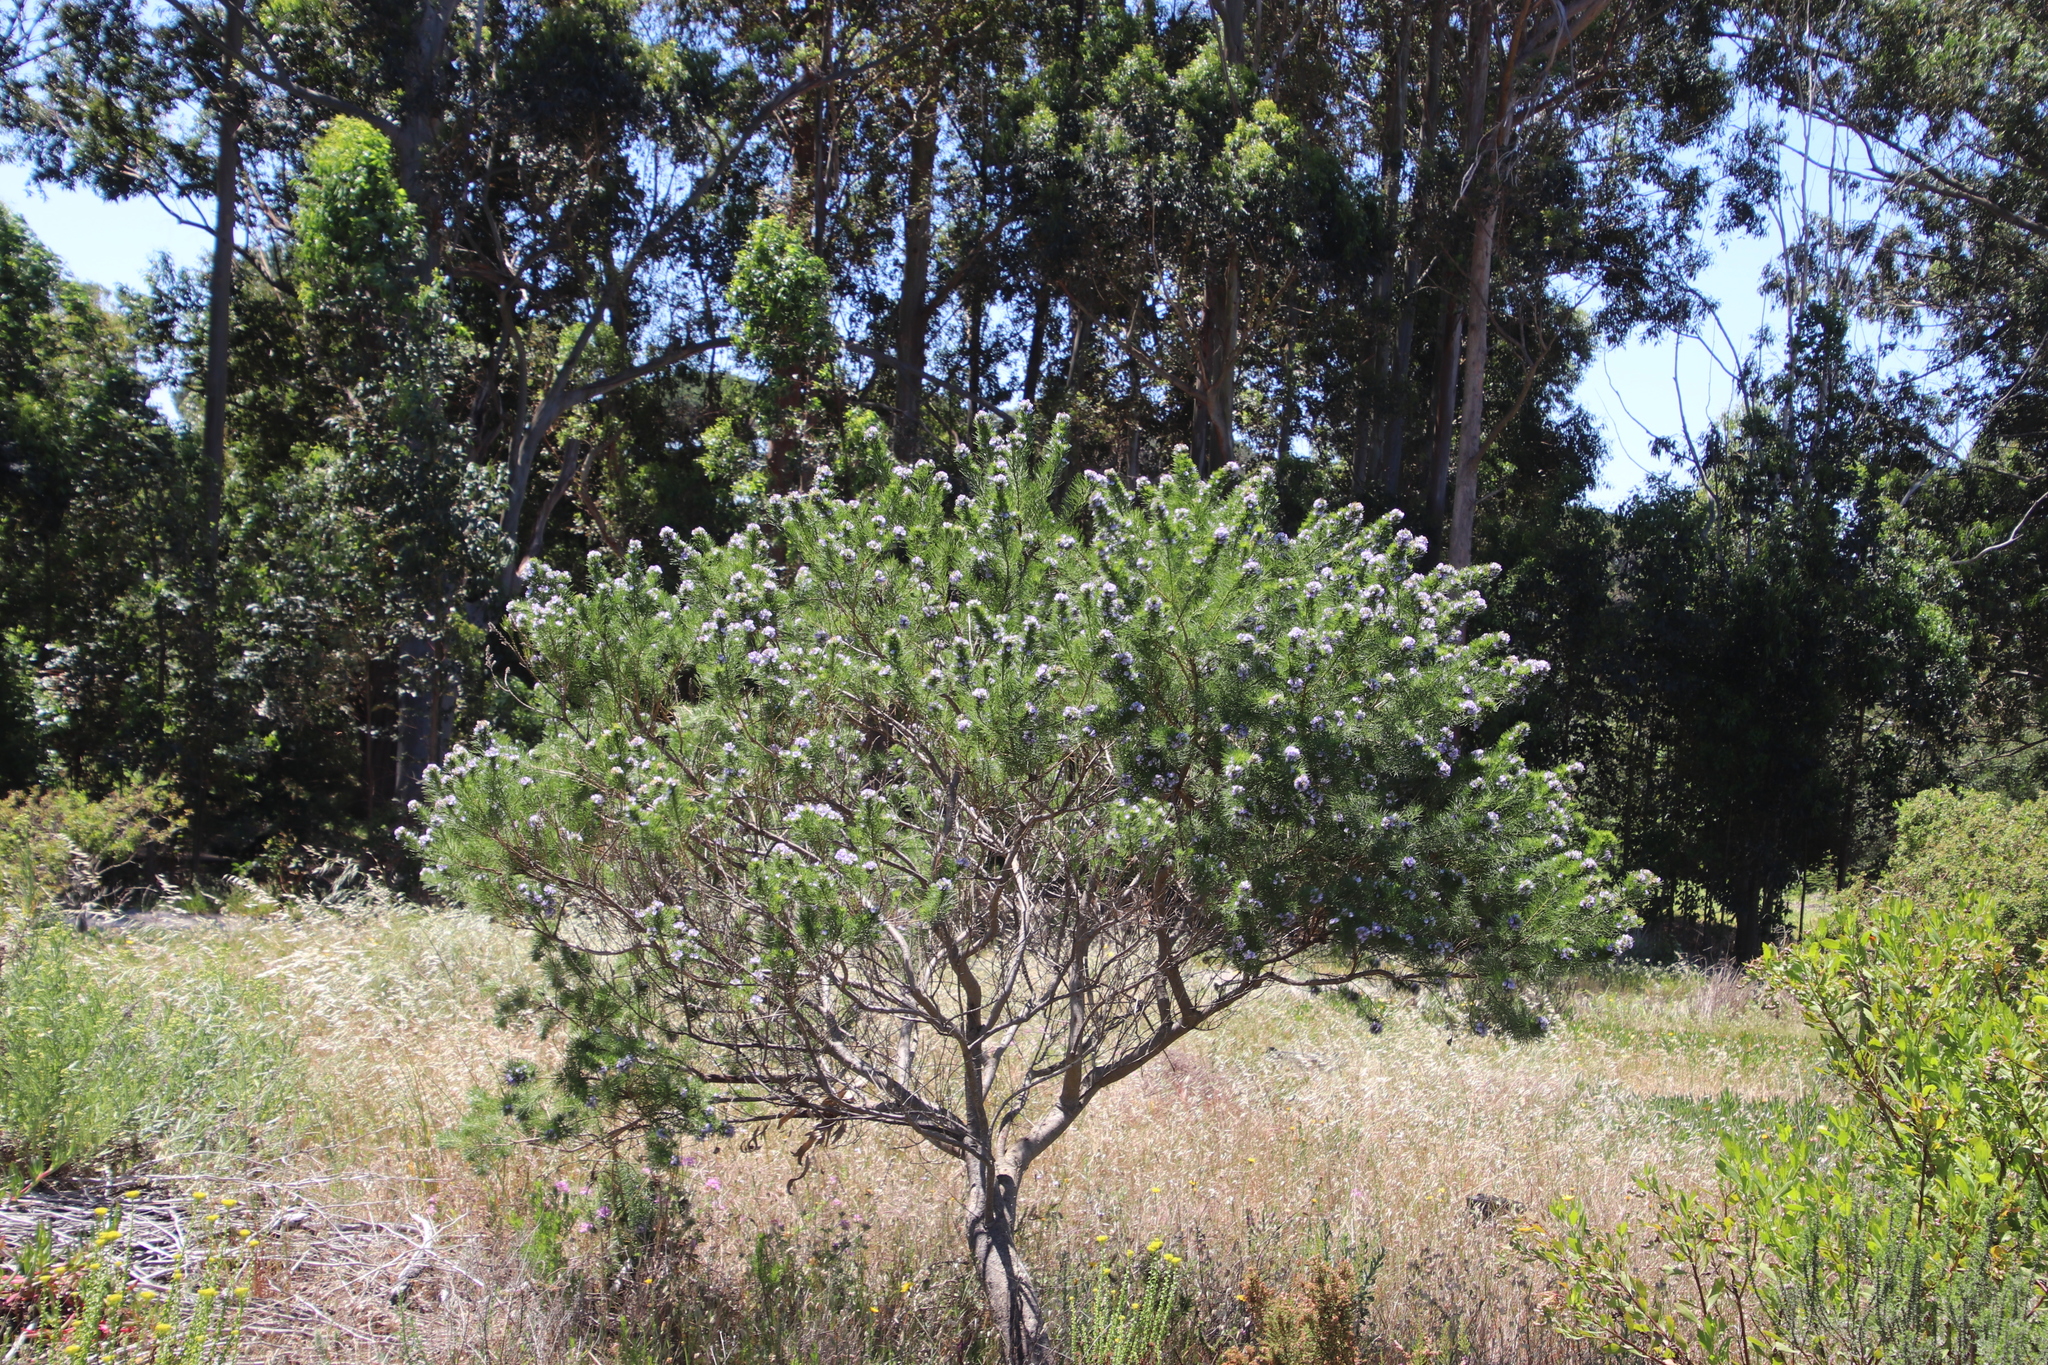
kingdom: Plantae
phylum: Tracheophyta
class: Magnoliopsida
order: Fabales
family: Fabaceae
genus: Psoralea
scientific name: Psoralea pinnata
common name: African scurfpea
